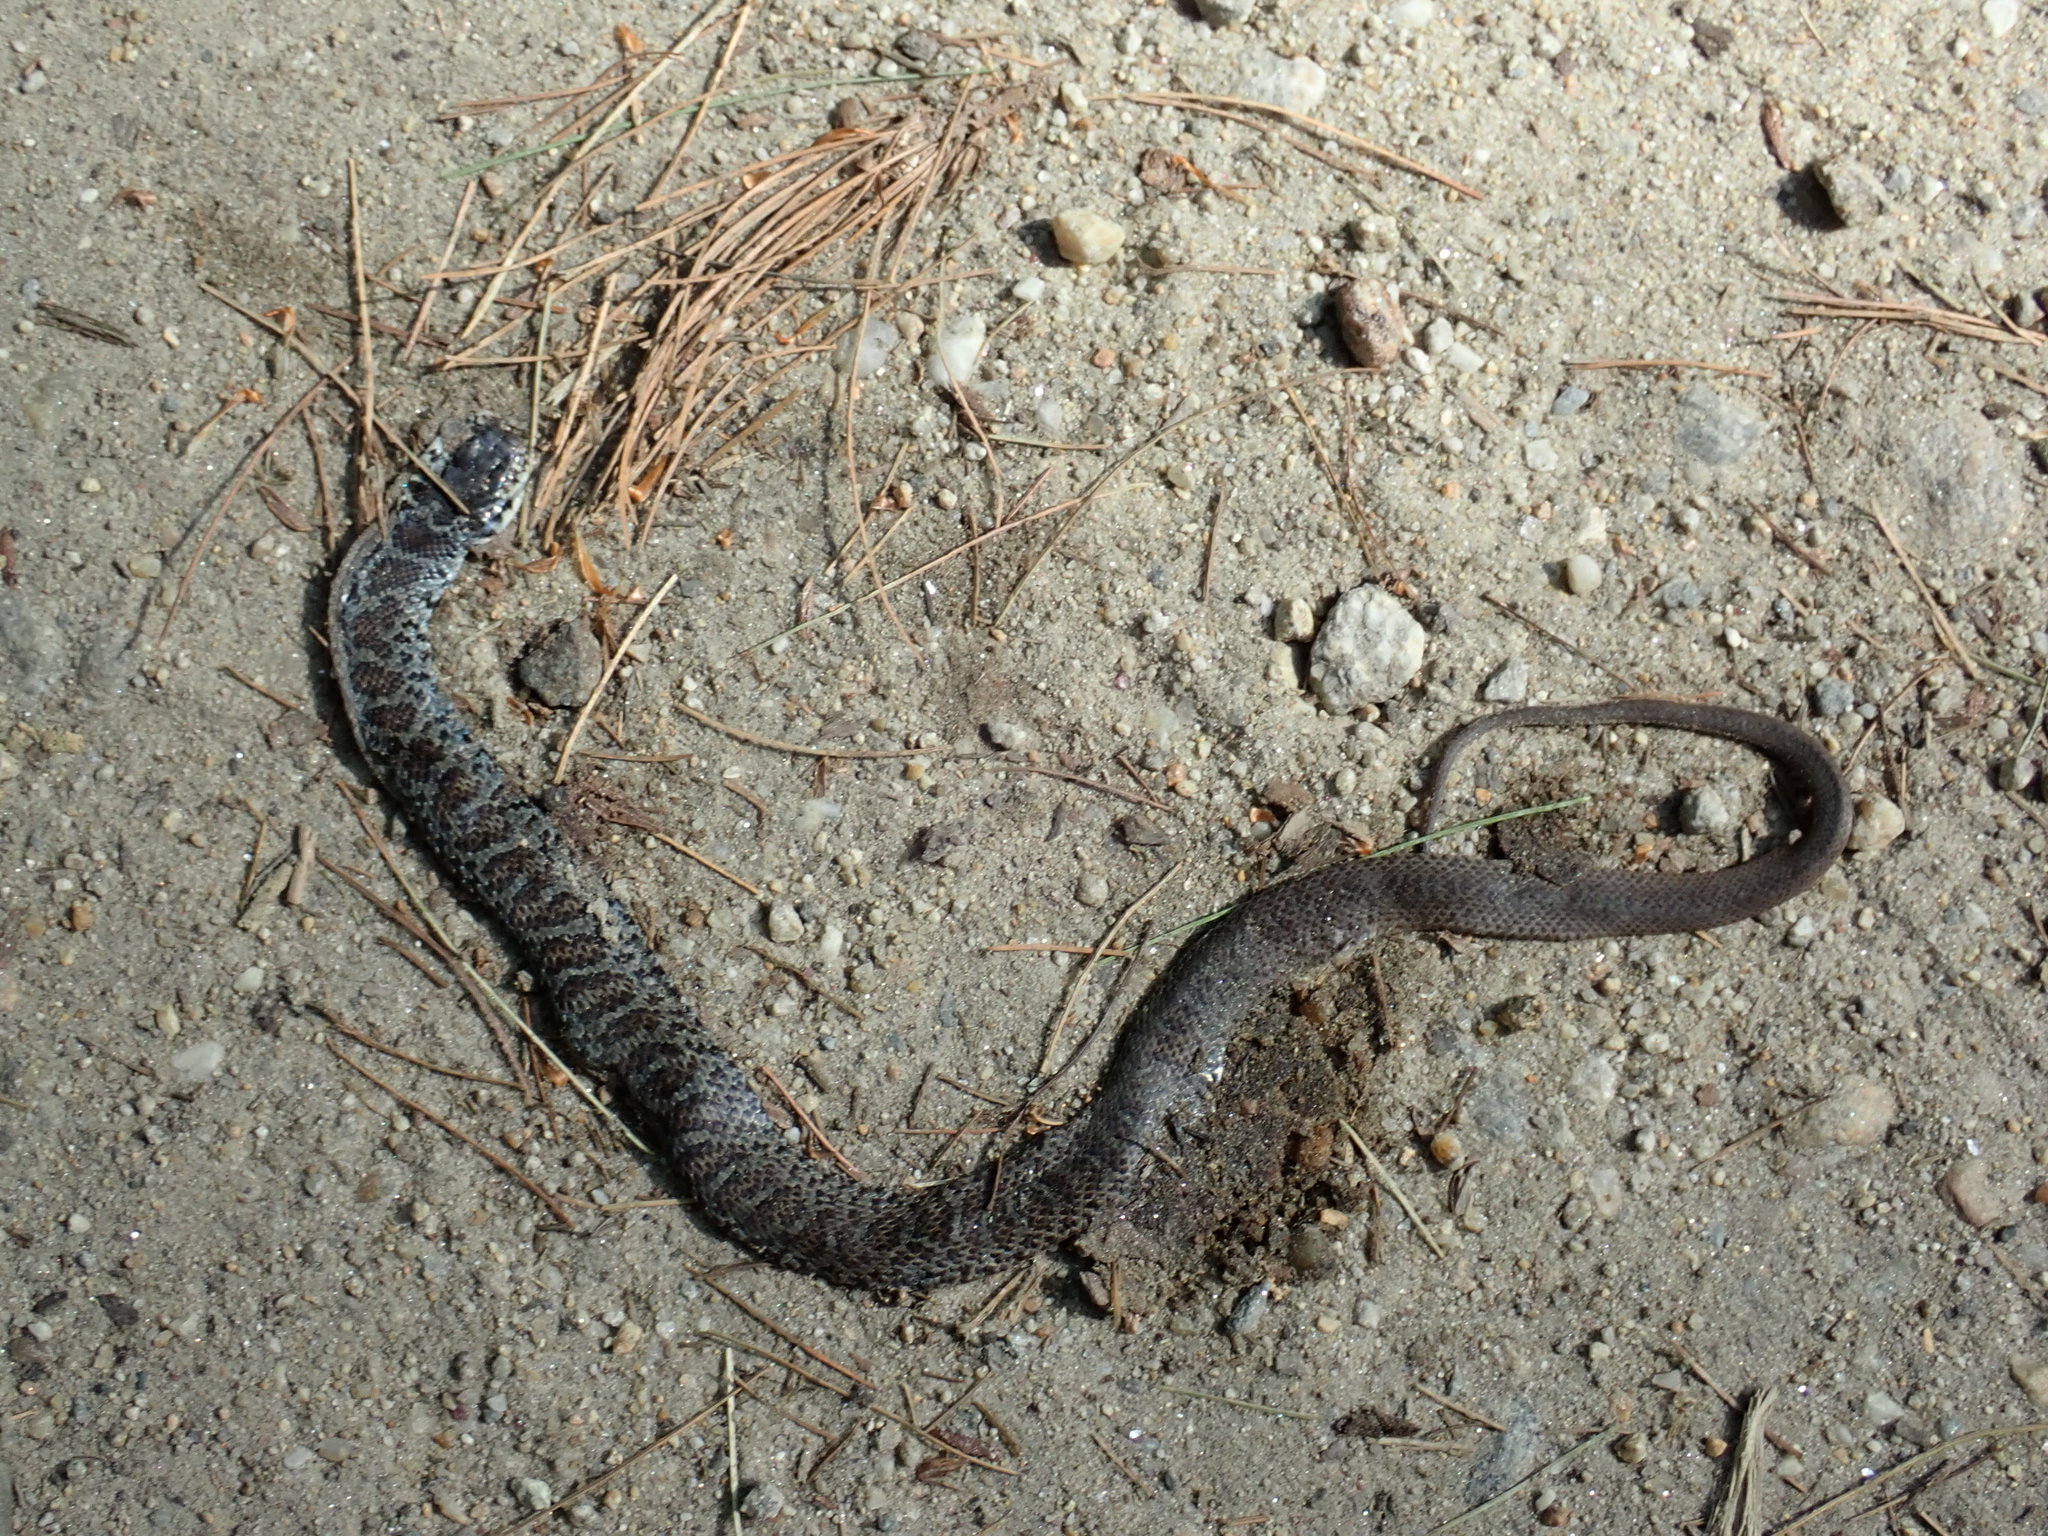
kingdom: Animalia
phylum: Chordata
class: Squamata
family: Colubridae
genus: Coluber
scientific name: Coluber constrictor
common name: Eastern racer
